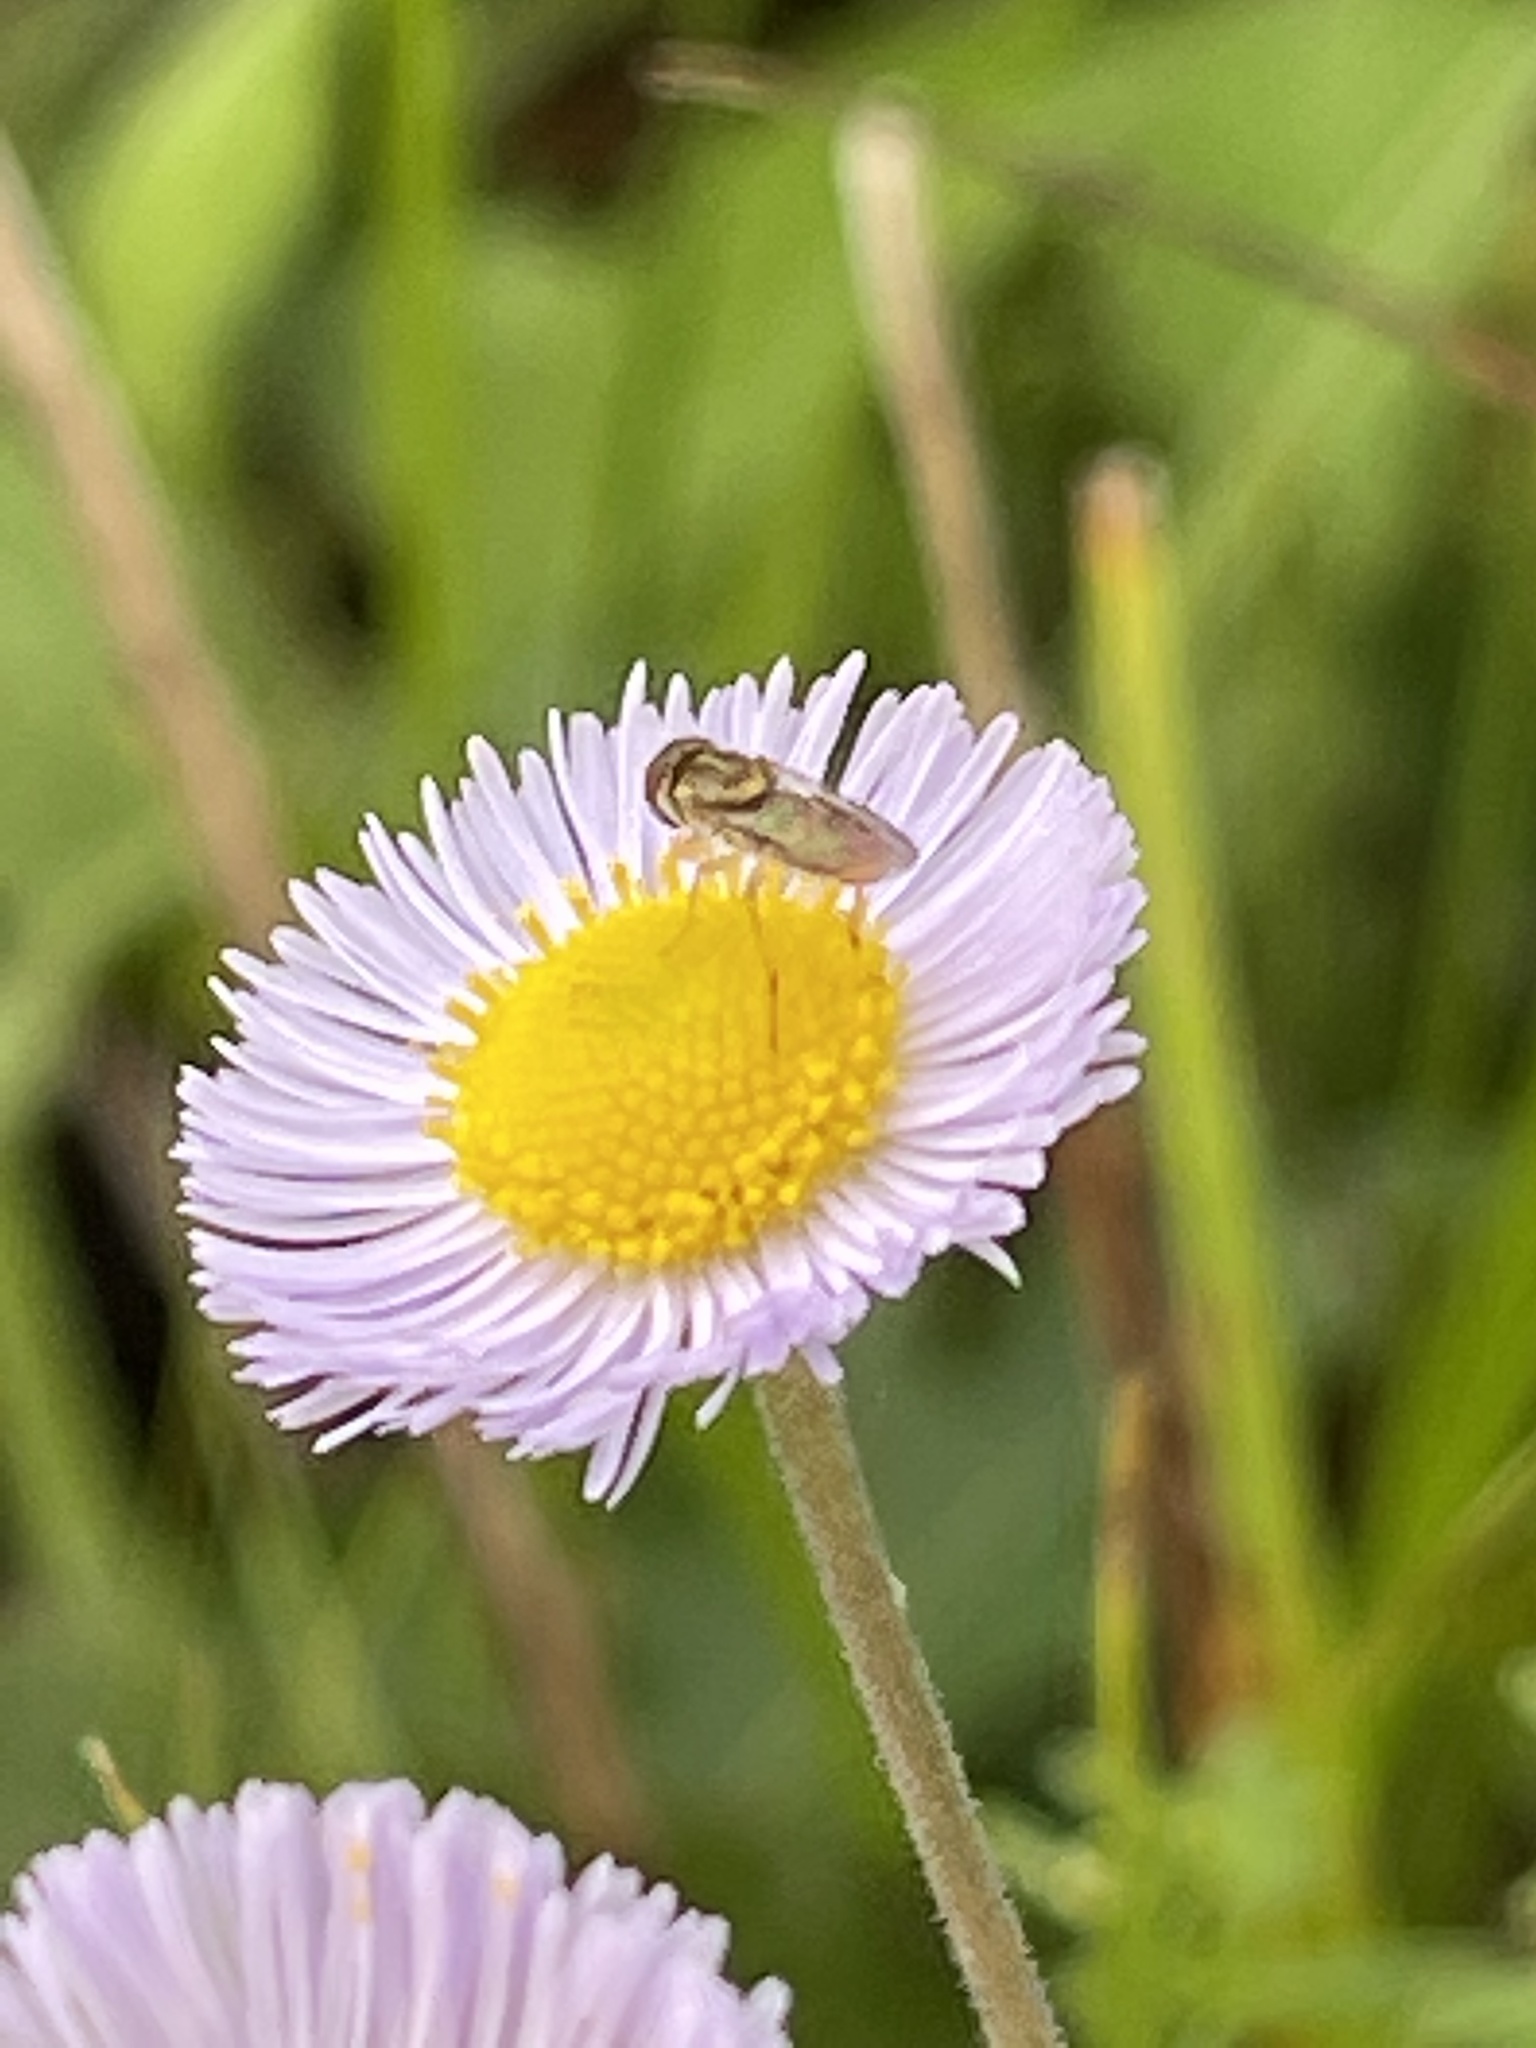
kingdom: Animalia
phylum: Arthropoda
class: Insecta
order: Diptera
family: Syrphidae
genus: Toxomerus
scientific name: Toxomerus
